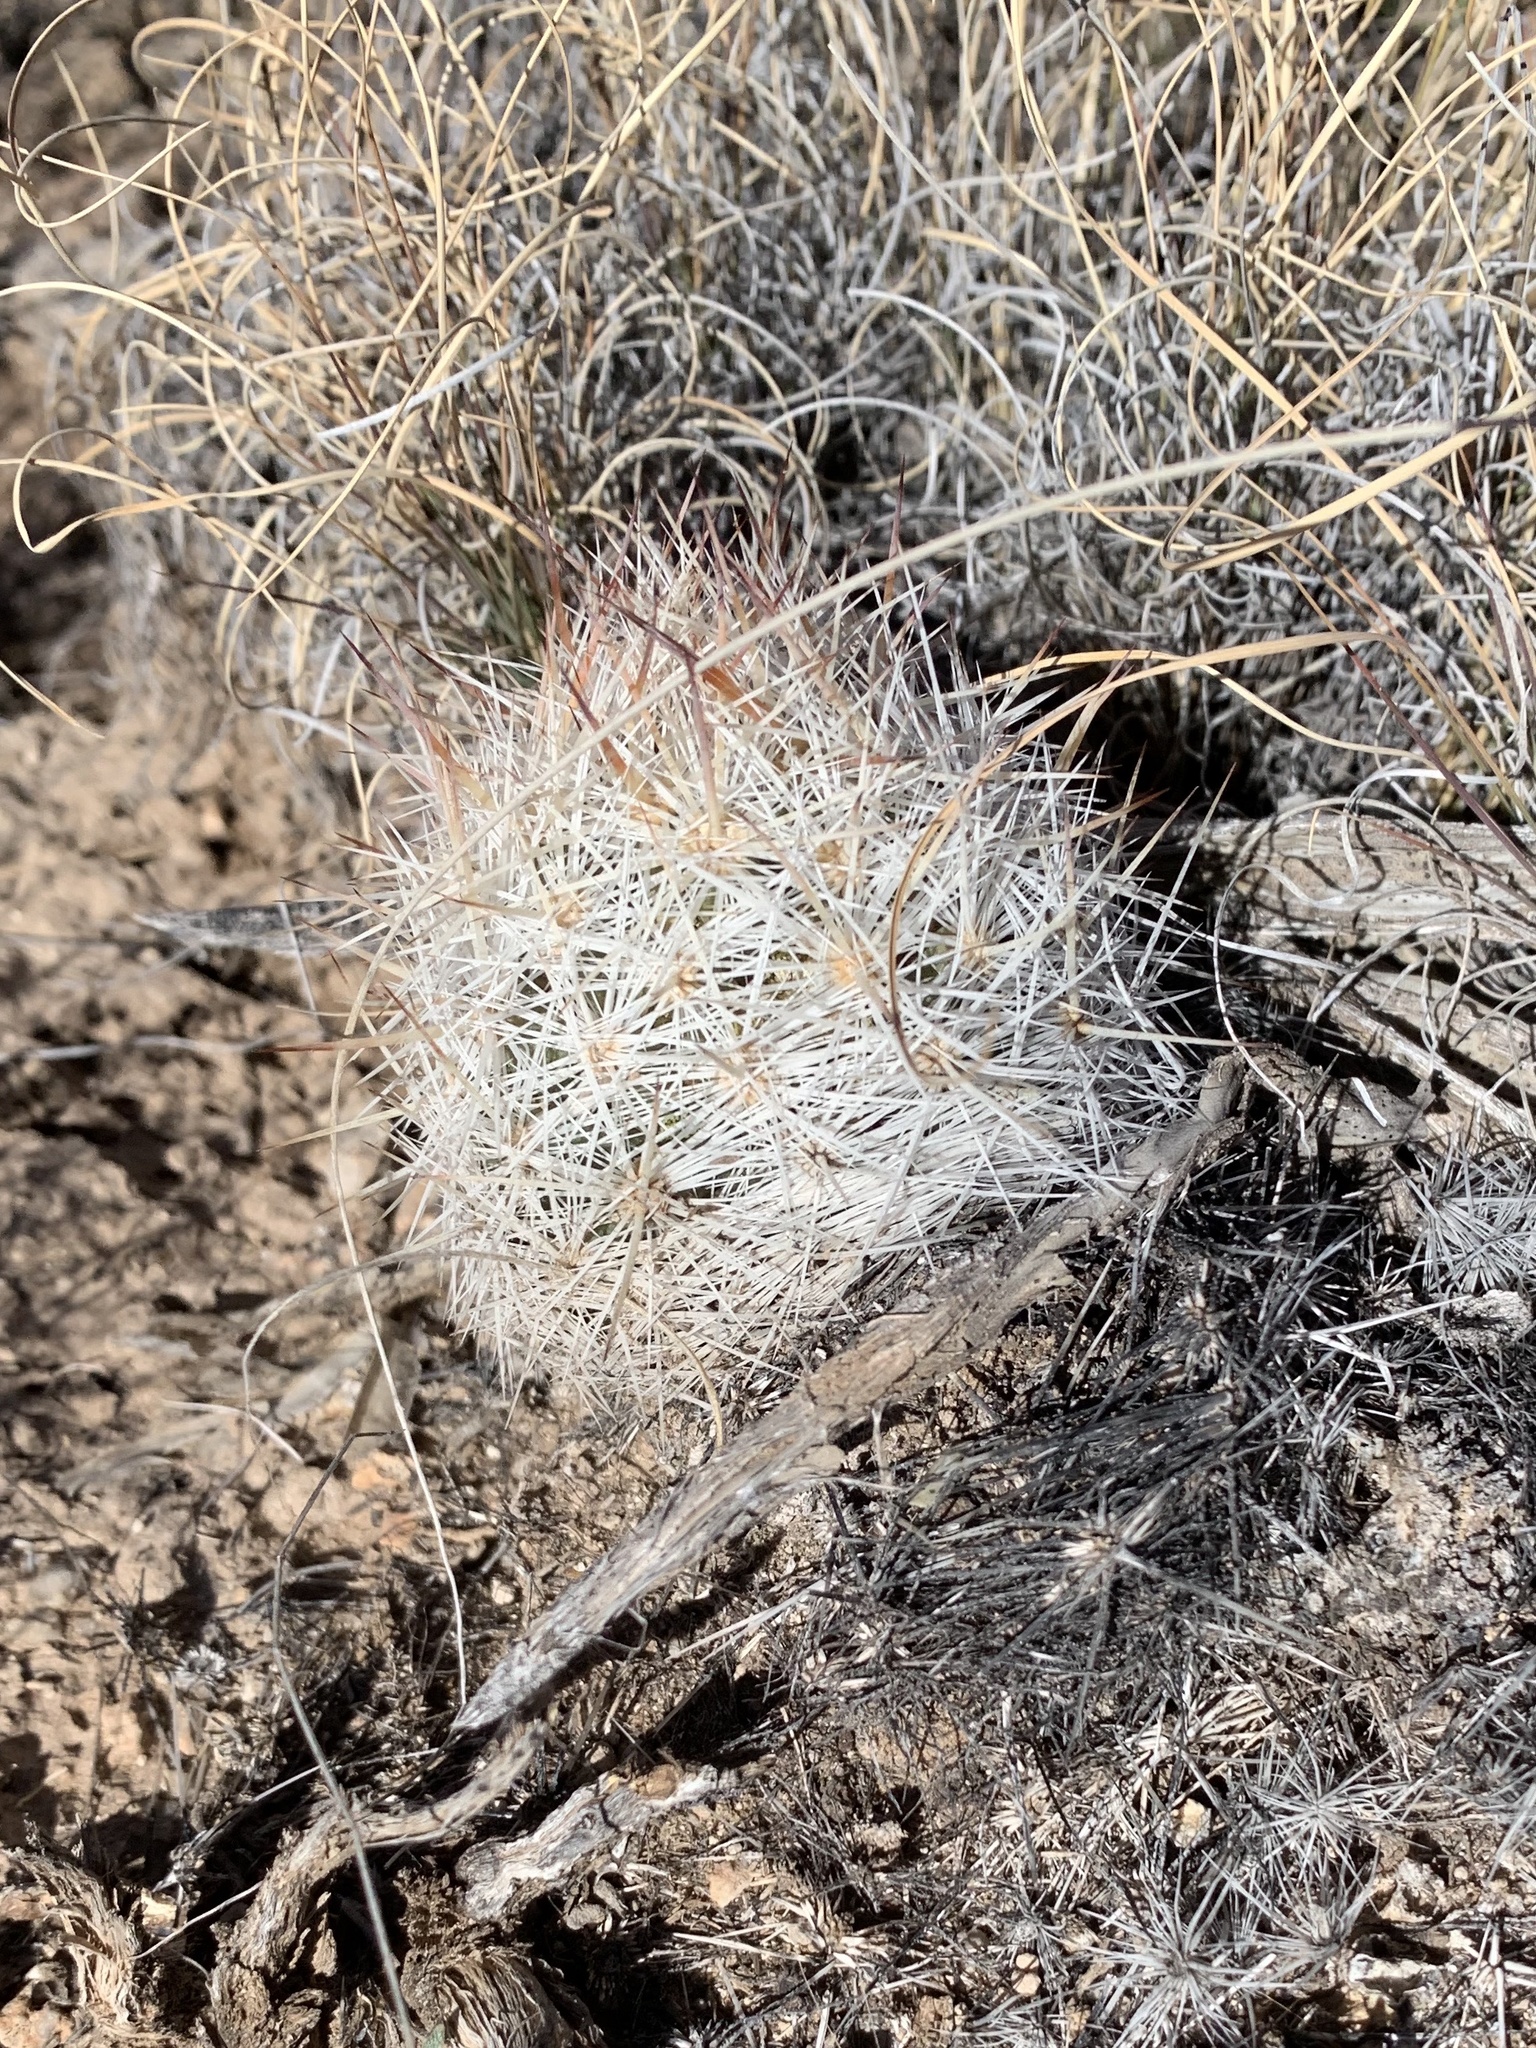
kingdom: Plantae
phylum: Tracheophyta
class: Magnoliopsida
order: Caryophyllales
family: Cactaceae
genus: Pelecyphora
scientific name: Pelecyphora vivipara
